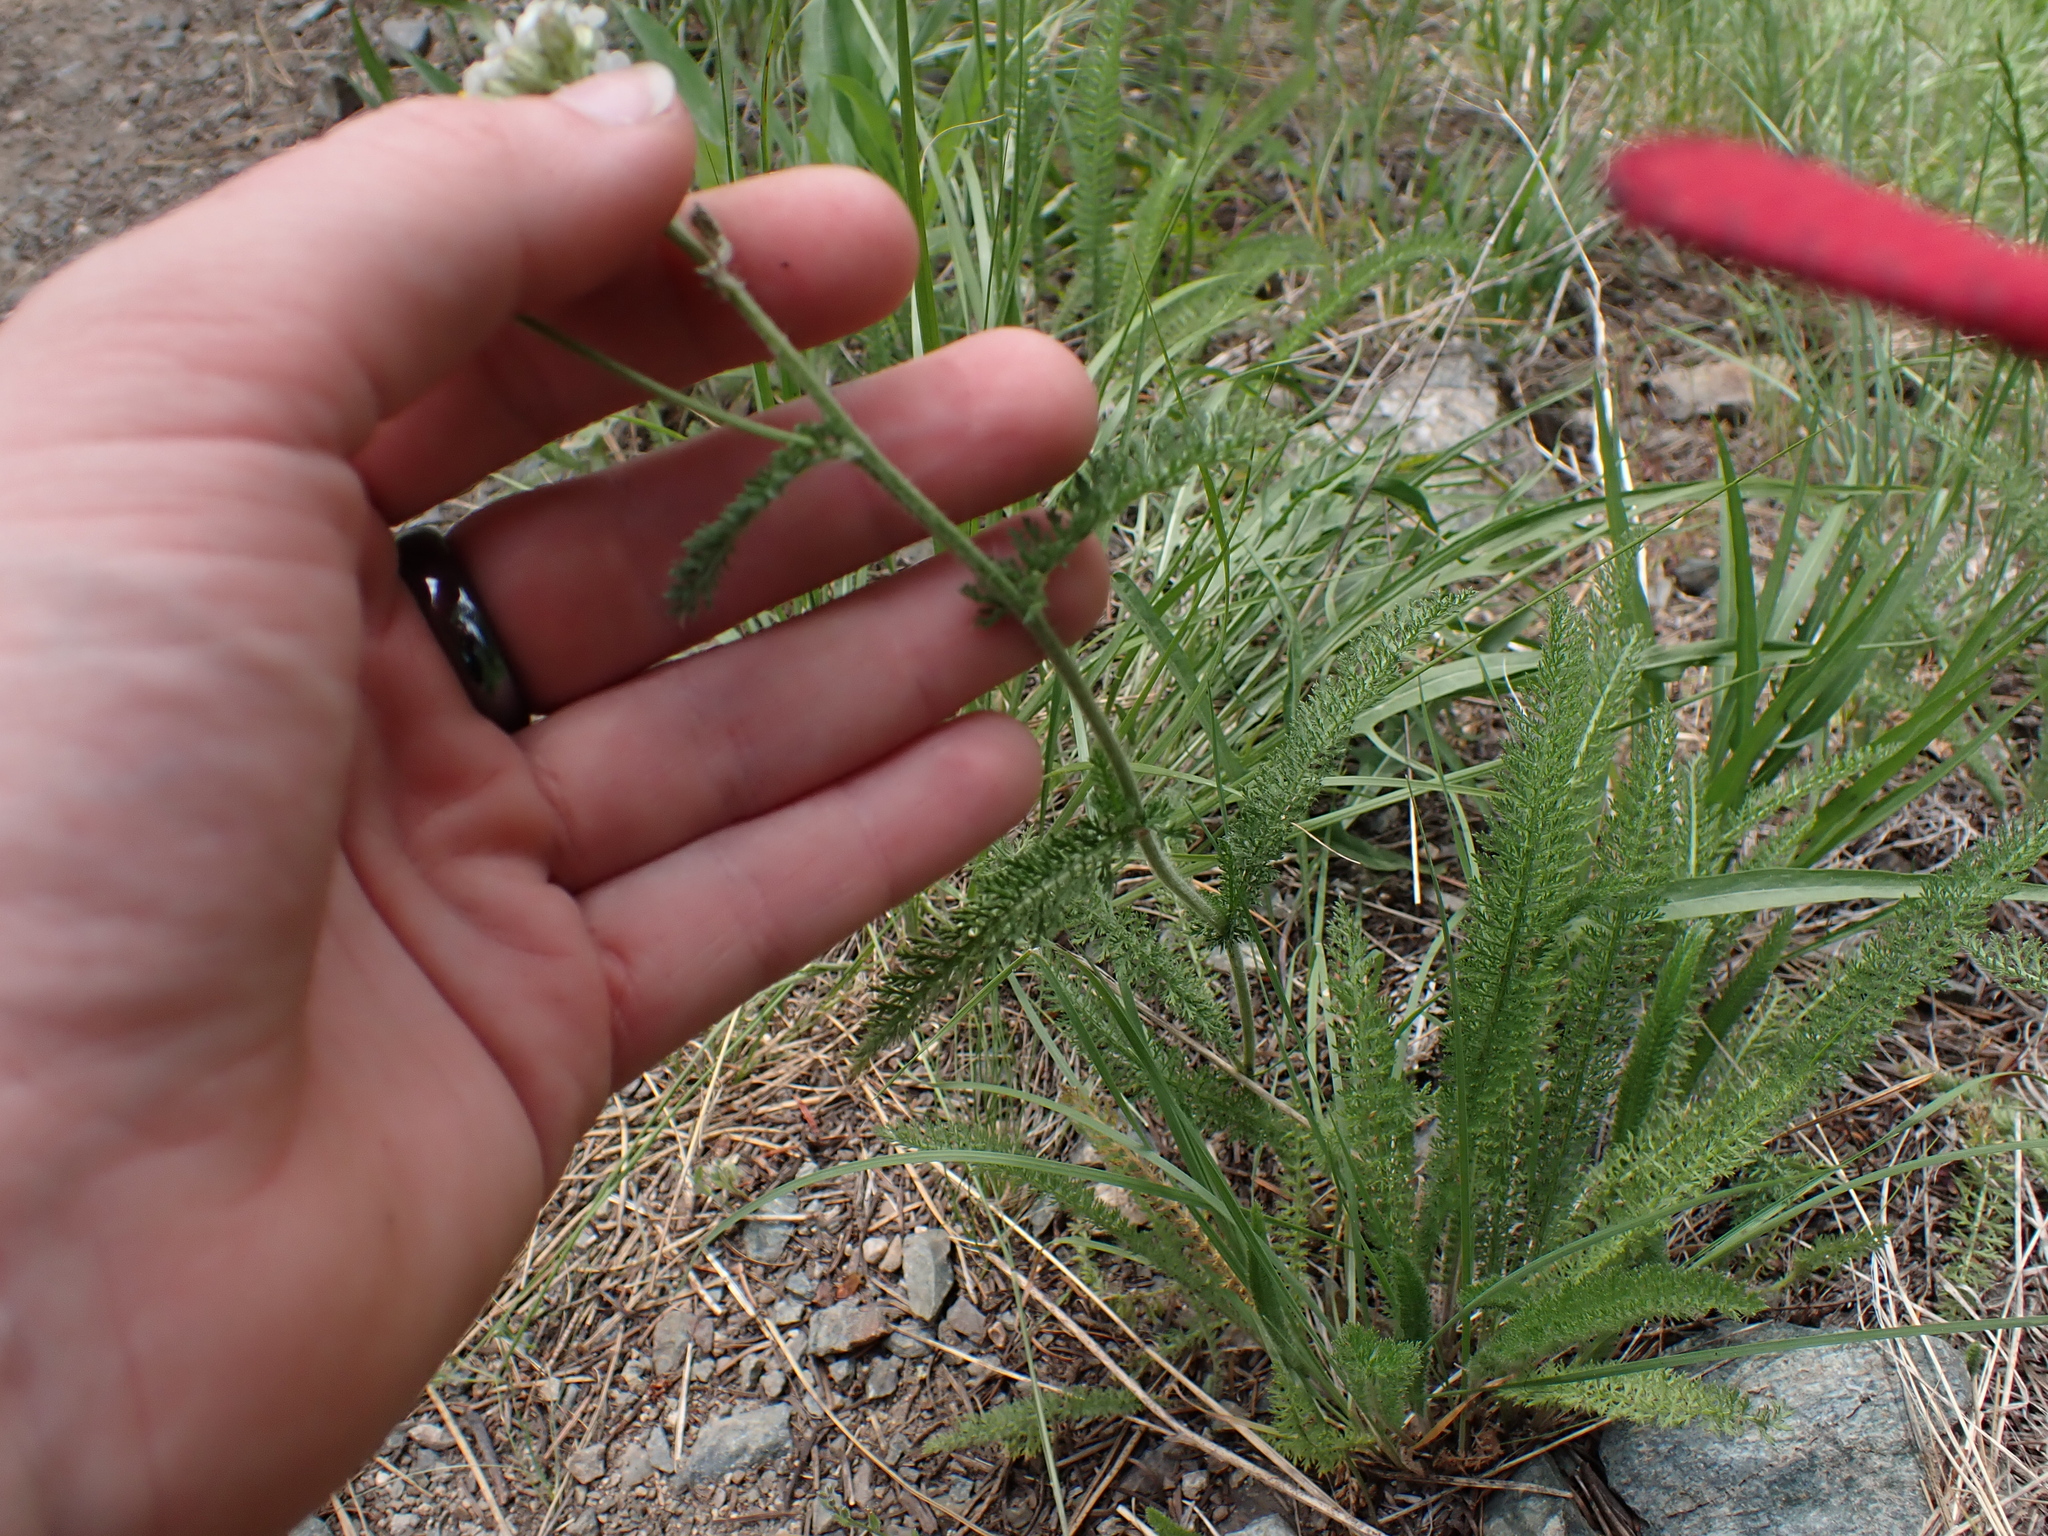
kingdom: Plantae
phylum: Tracheophyta
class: Magnoliopsida
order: Asterales
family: Asteraceae
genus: Achillea
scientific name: Achillea millefolium
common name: Yarrow
